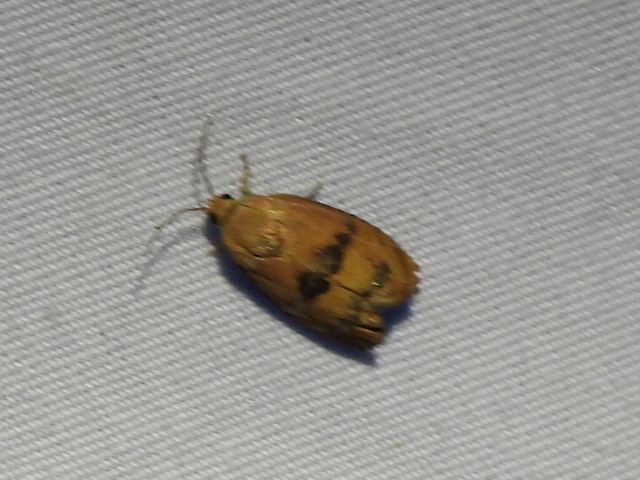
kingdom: Animalia
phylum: Arthropoda
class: Insecta
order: Lepidoptera
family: Tortricidae
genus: Cydia
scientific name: Cydia latiferreana
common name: Filbertworm moth
